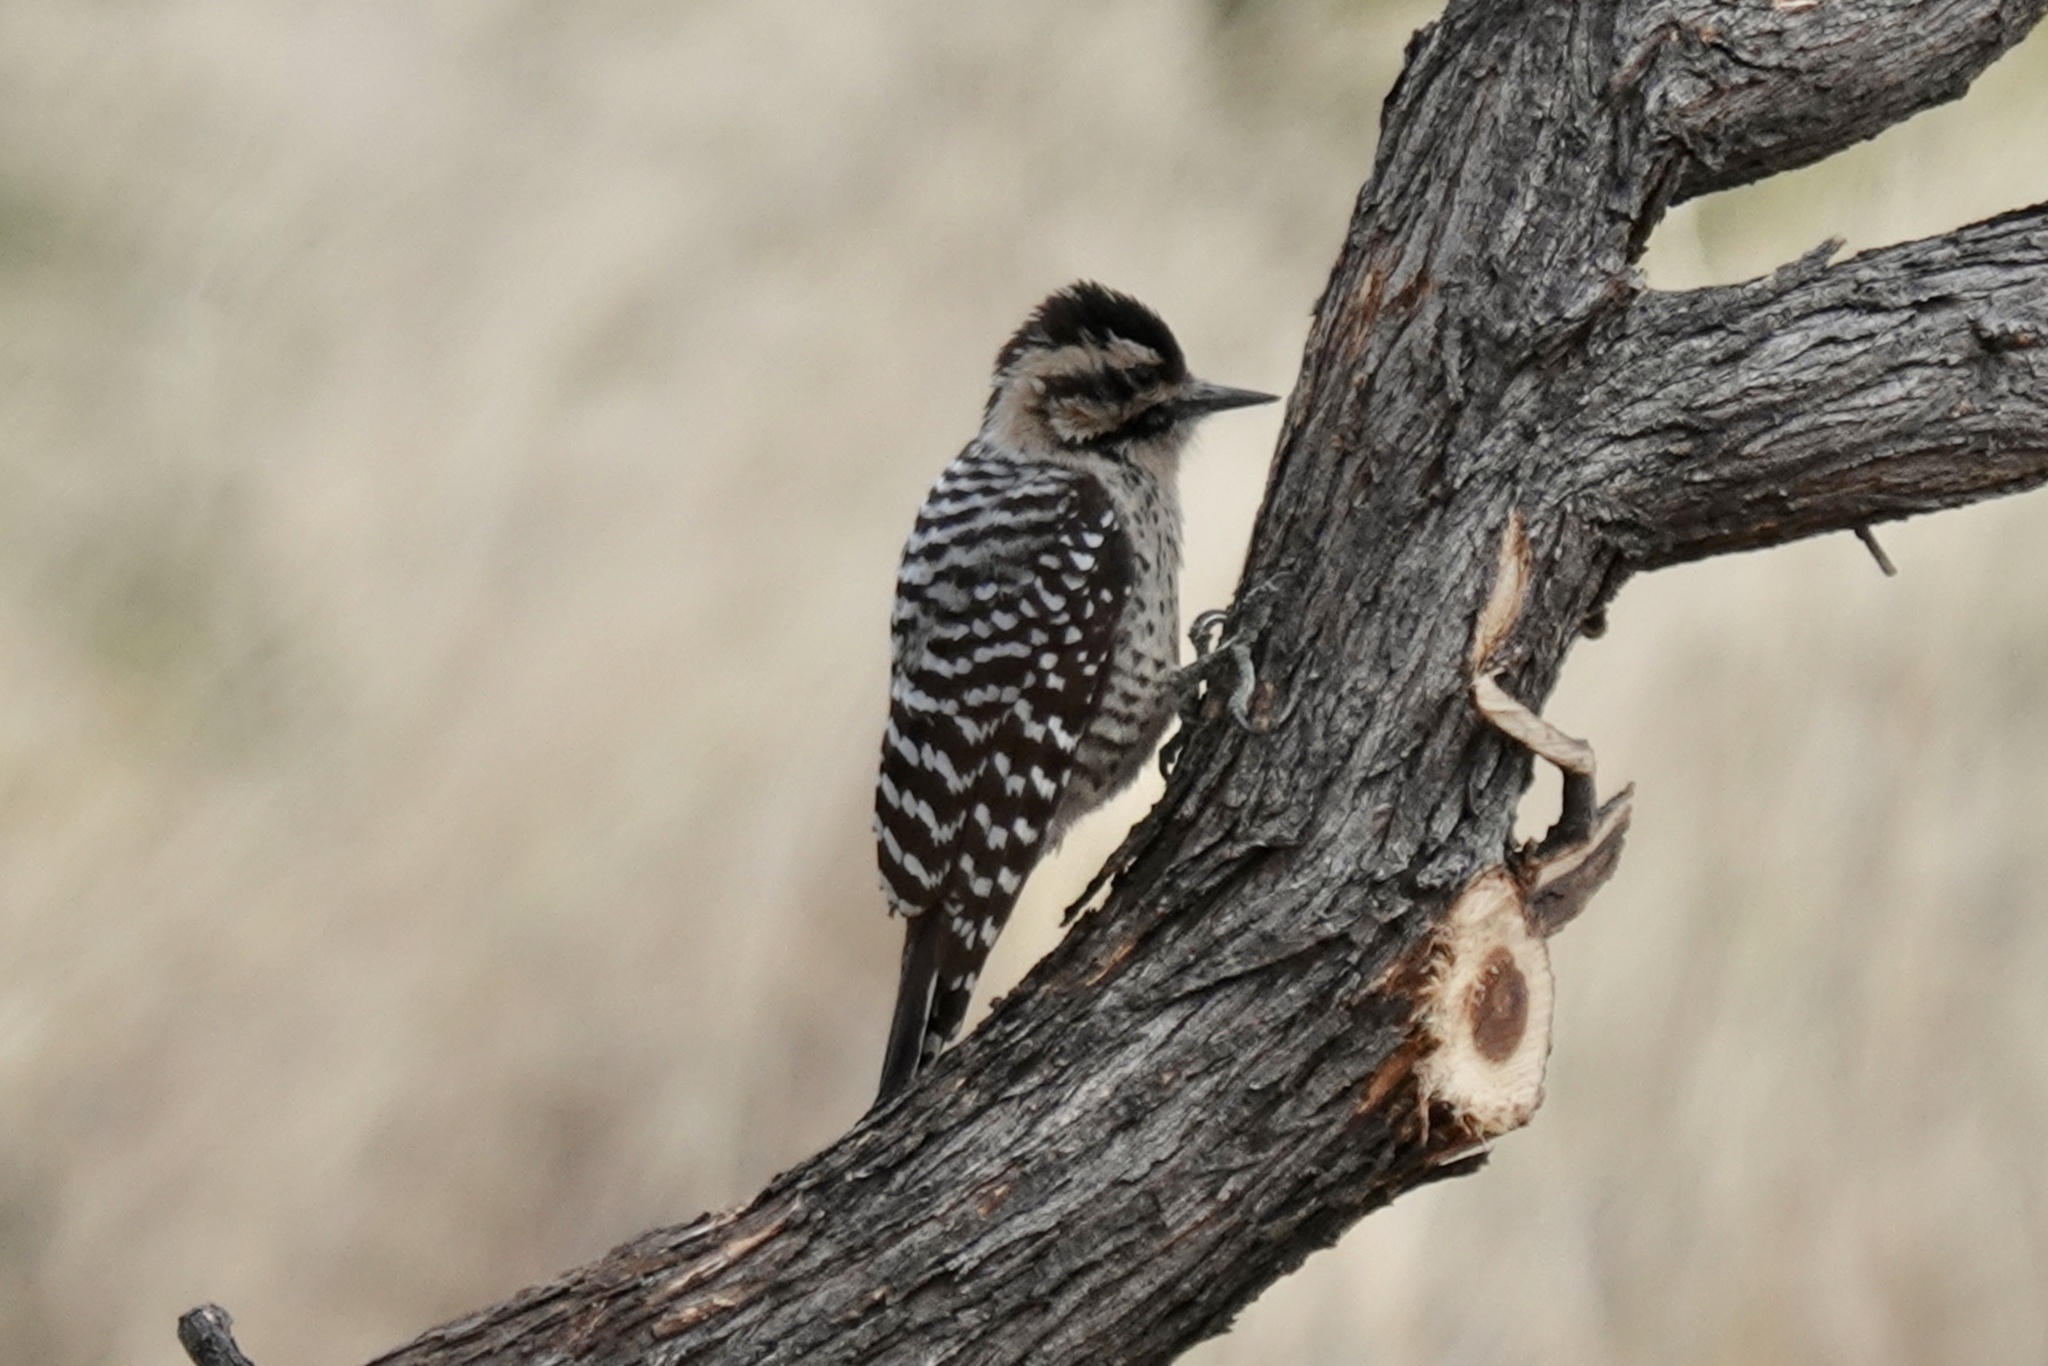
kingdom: Animalia
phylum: Chordata
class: Aves
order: Piciformes
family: Picidae
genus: Dryobates
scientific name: Dryobates scalaris
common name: Ladder-backed woodpecker
